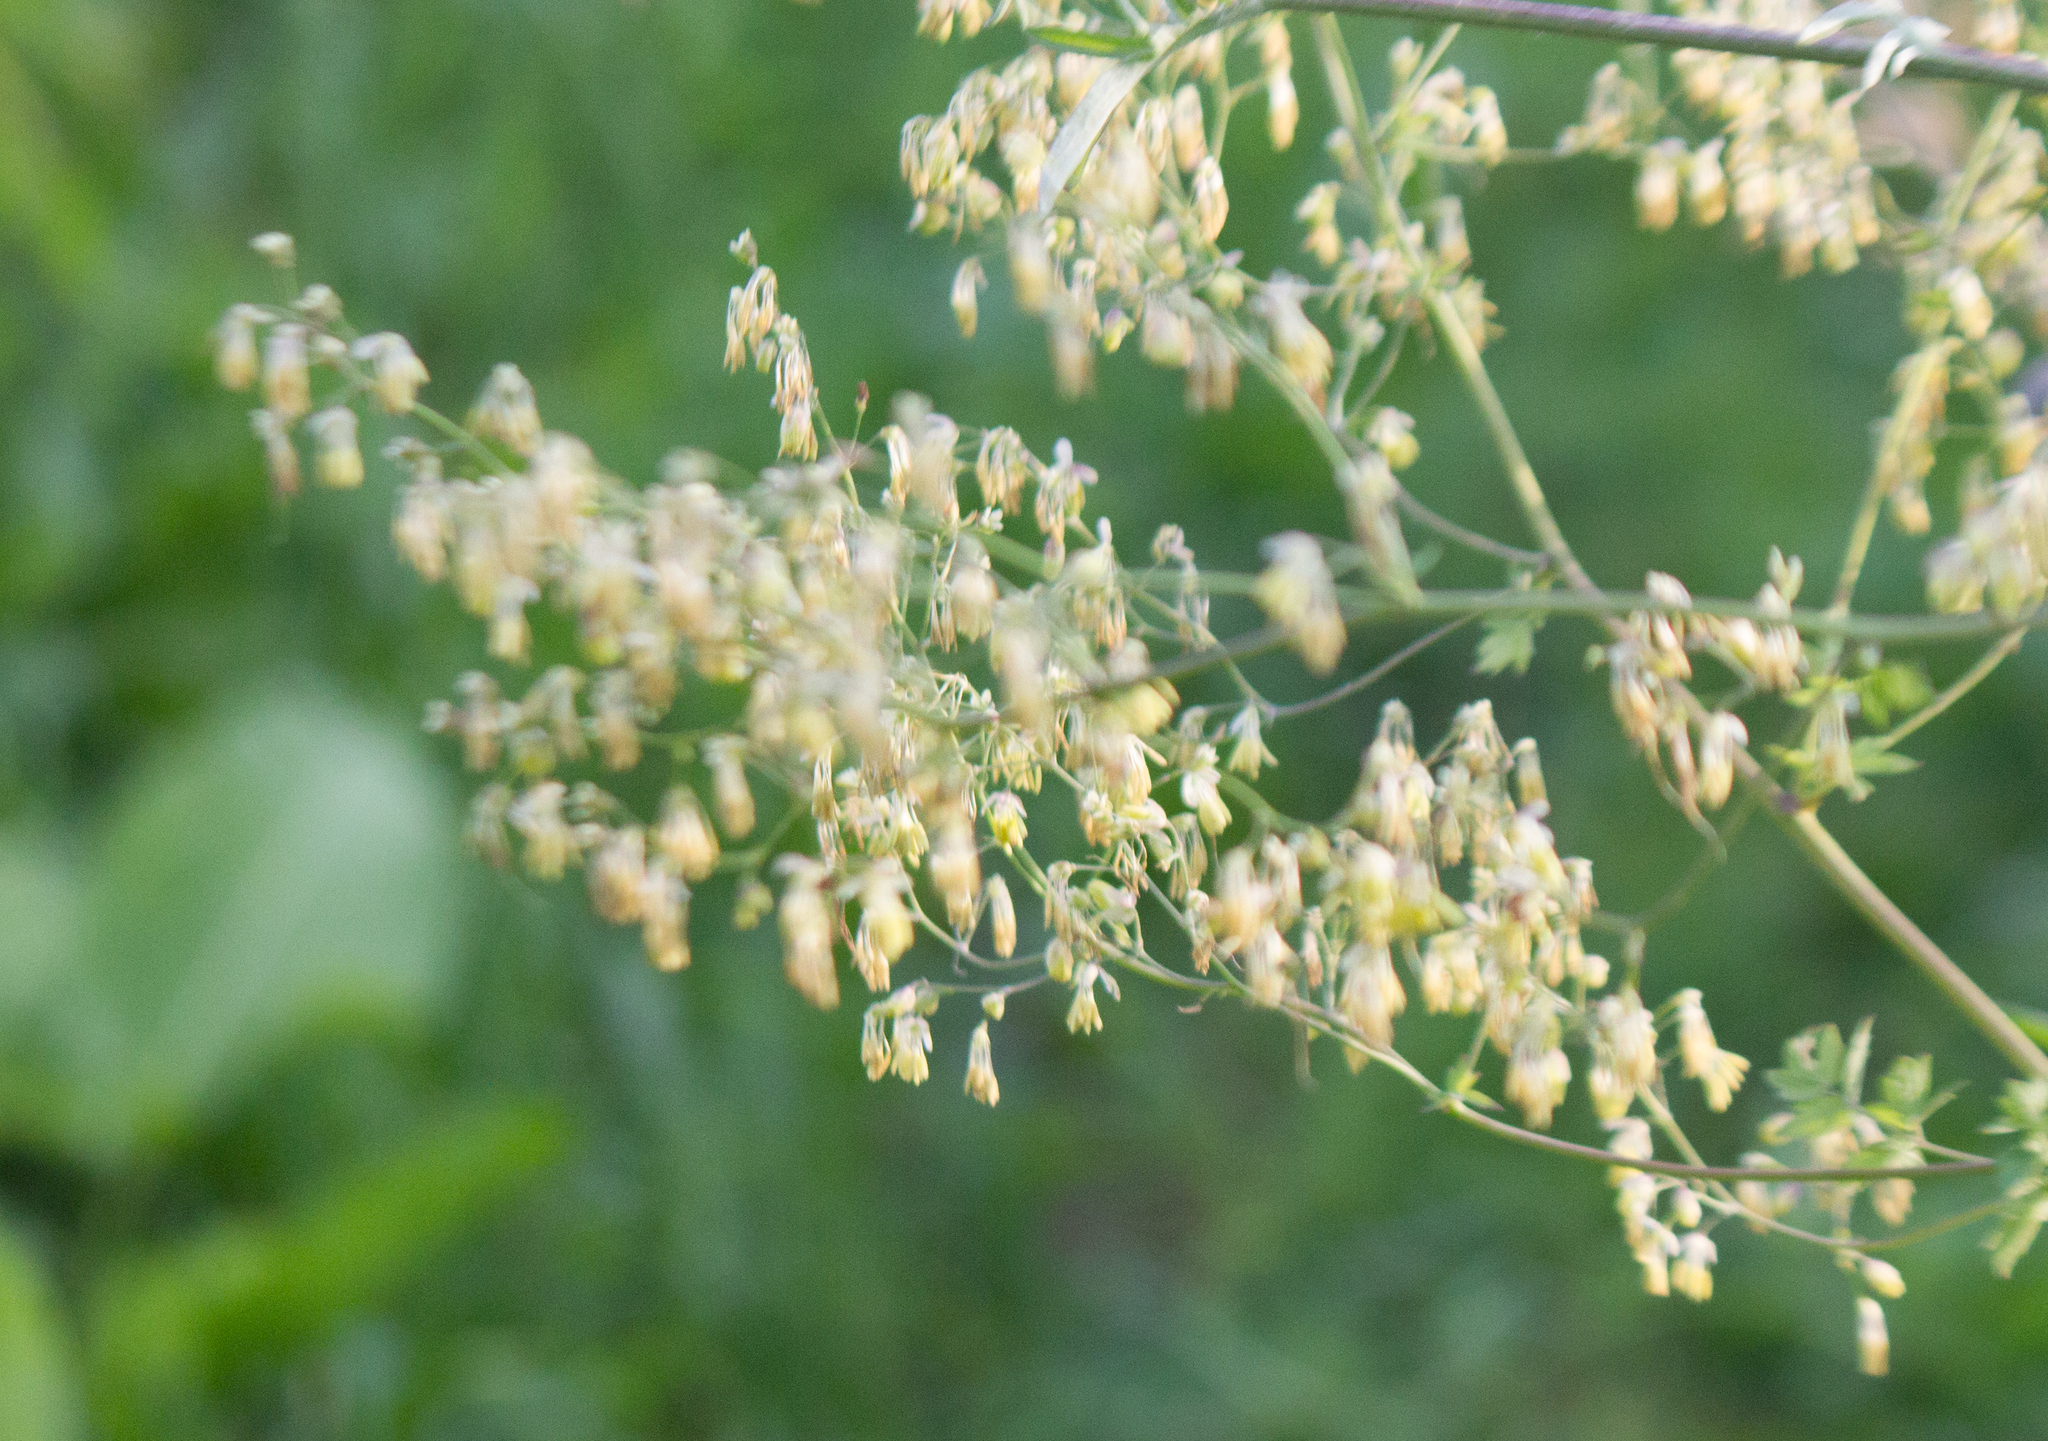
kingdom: Plantae
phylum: Tracheophyta
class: Magnoliopsida
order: Ranunculales
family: Ranunculaceae
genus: Thalictrum
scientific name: Thalictrum minus
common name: Lesser meadow-rue
